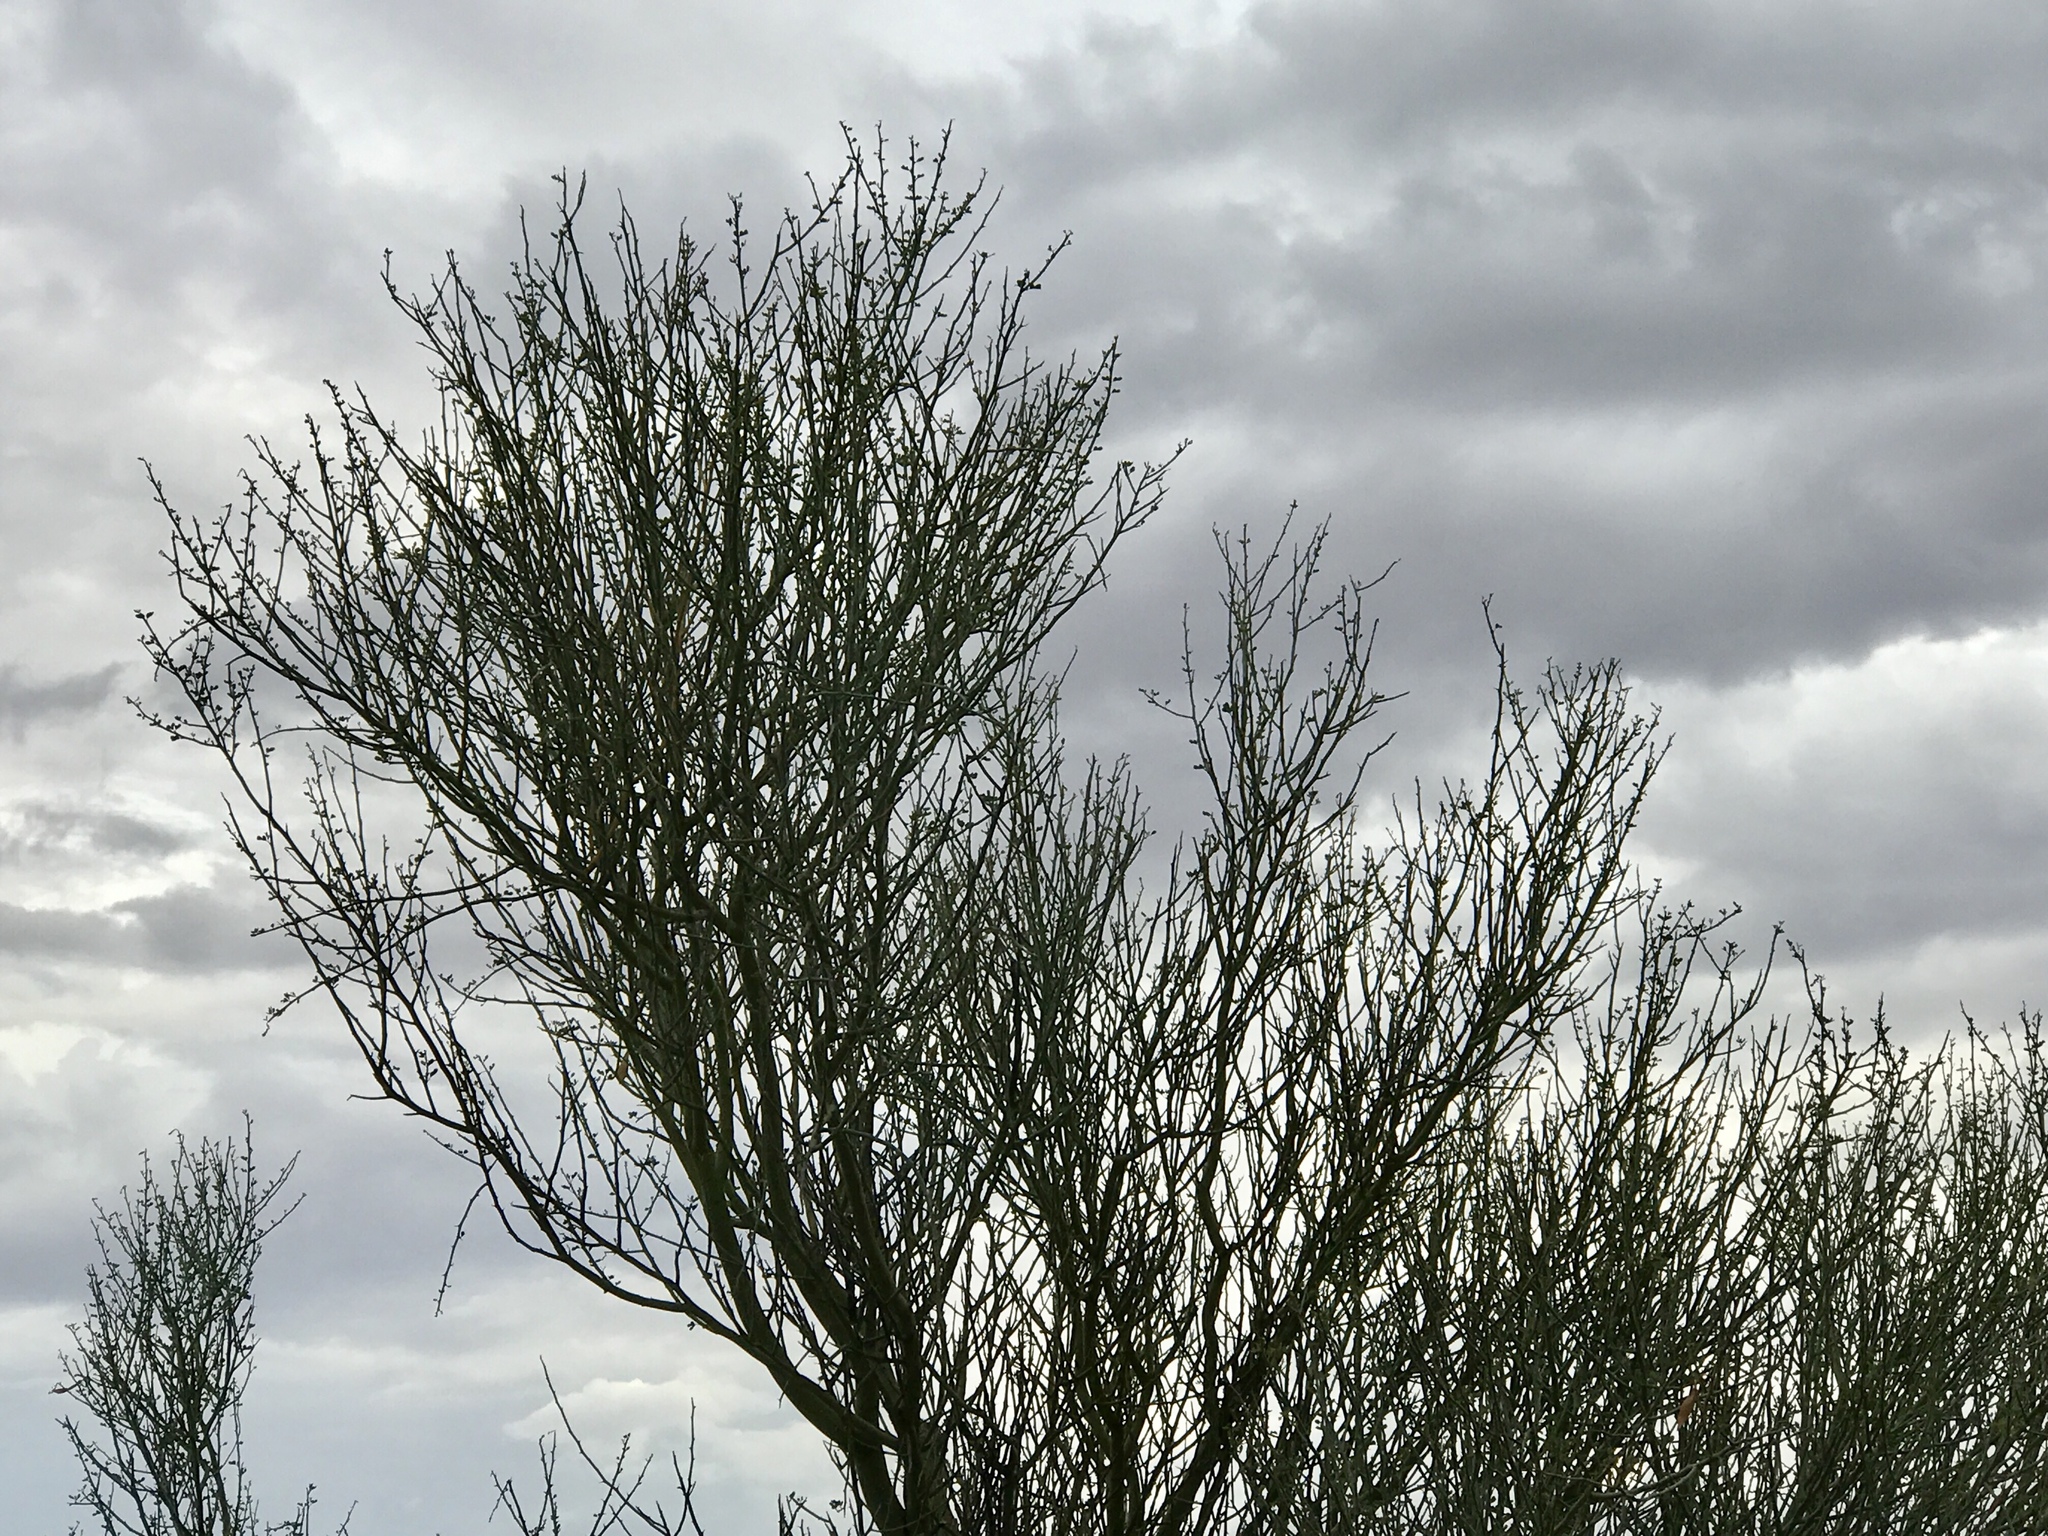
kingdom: Plantae
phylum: Tracheophyta
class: Magnoliopsida
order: Fabales
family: Fabaceae
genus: Parkinsonia
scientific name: Parkinsonia florida
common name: Blue paloverde
